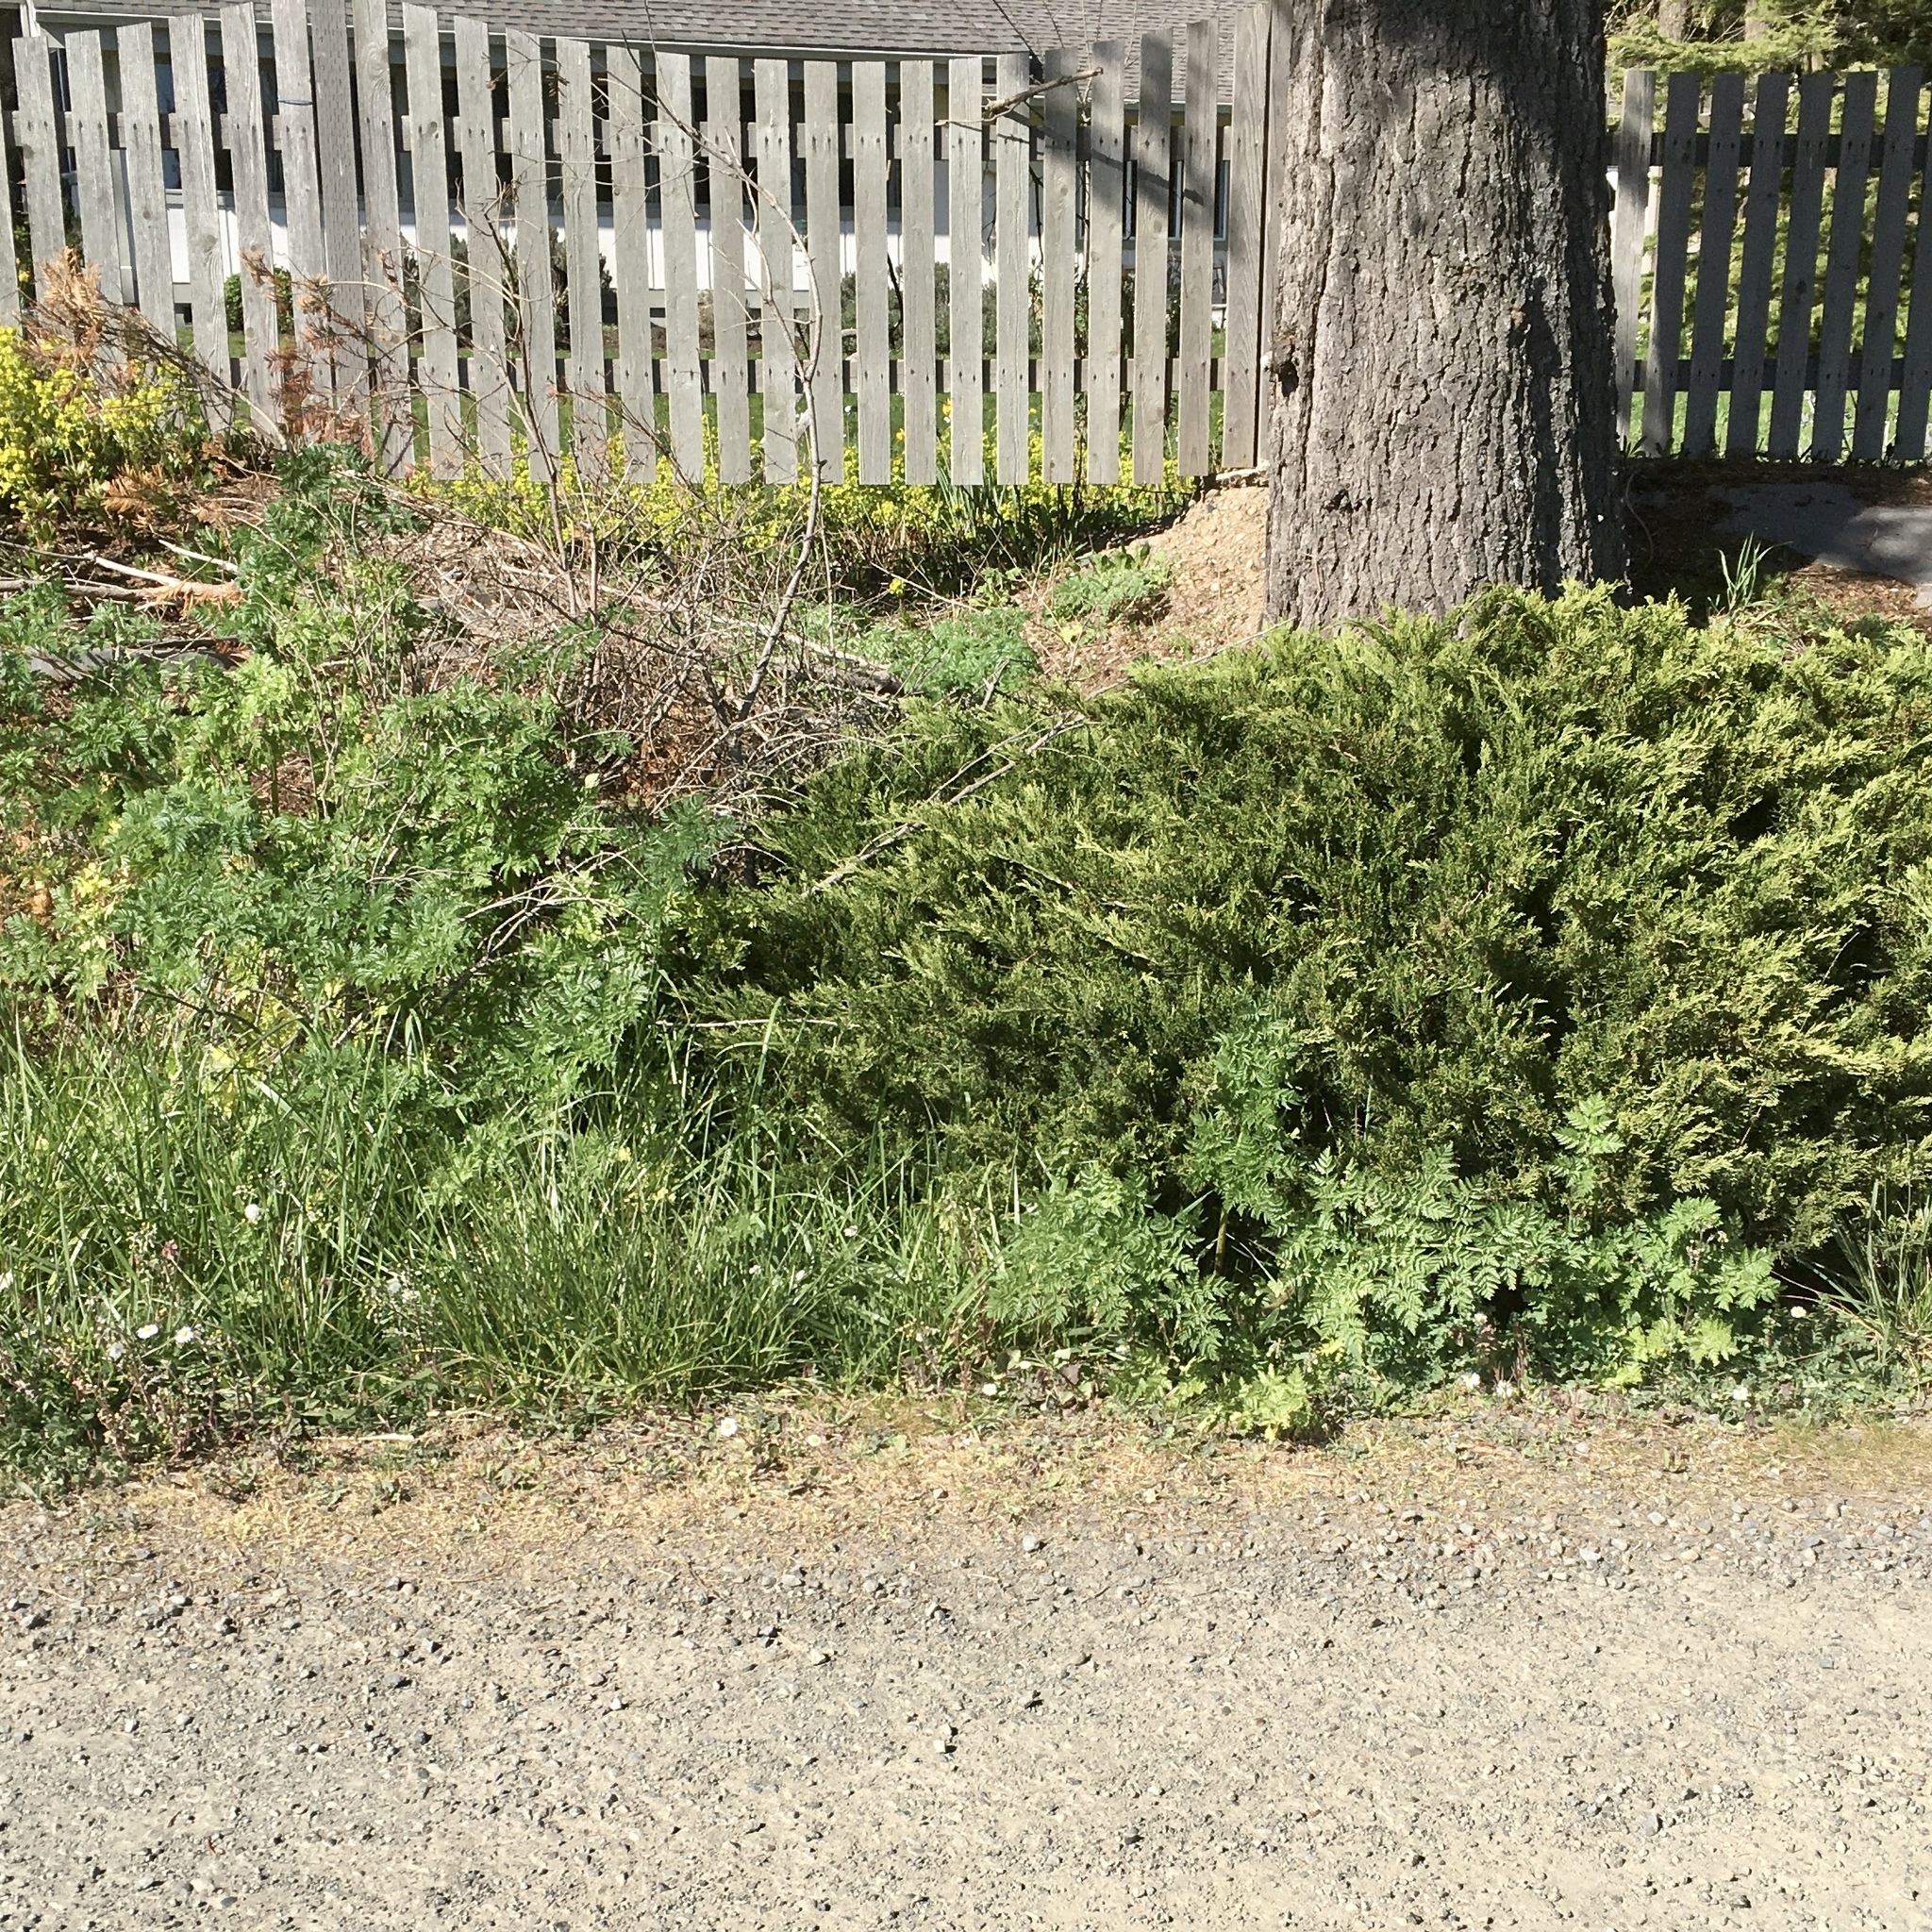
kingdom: Plantae
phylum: Tracheophyta
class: Magnoliopsida
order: Apiales
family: Apiaceae
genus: Conium
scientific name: Conium maculatum
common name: Hemlock
